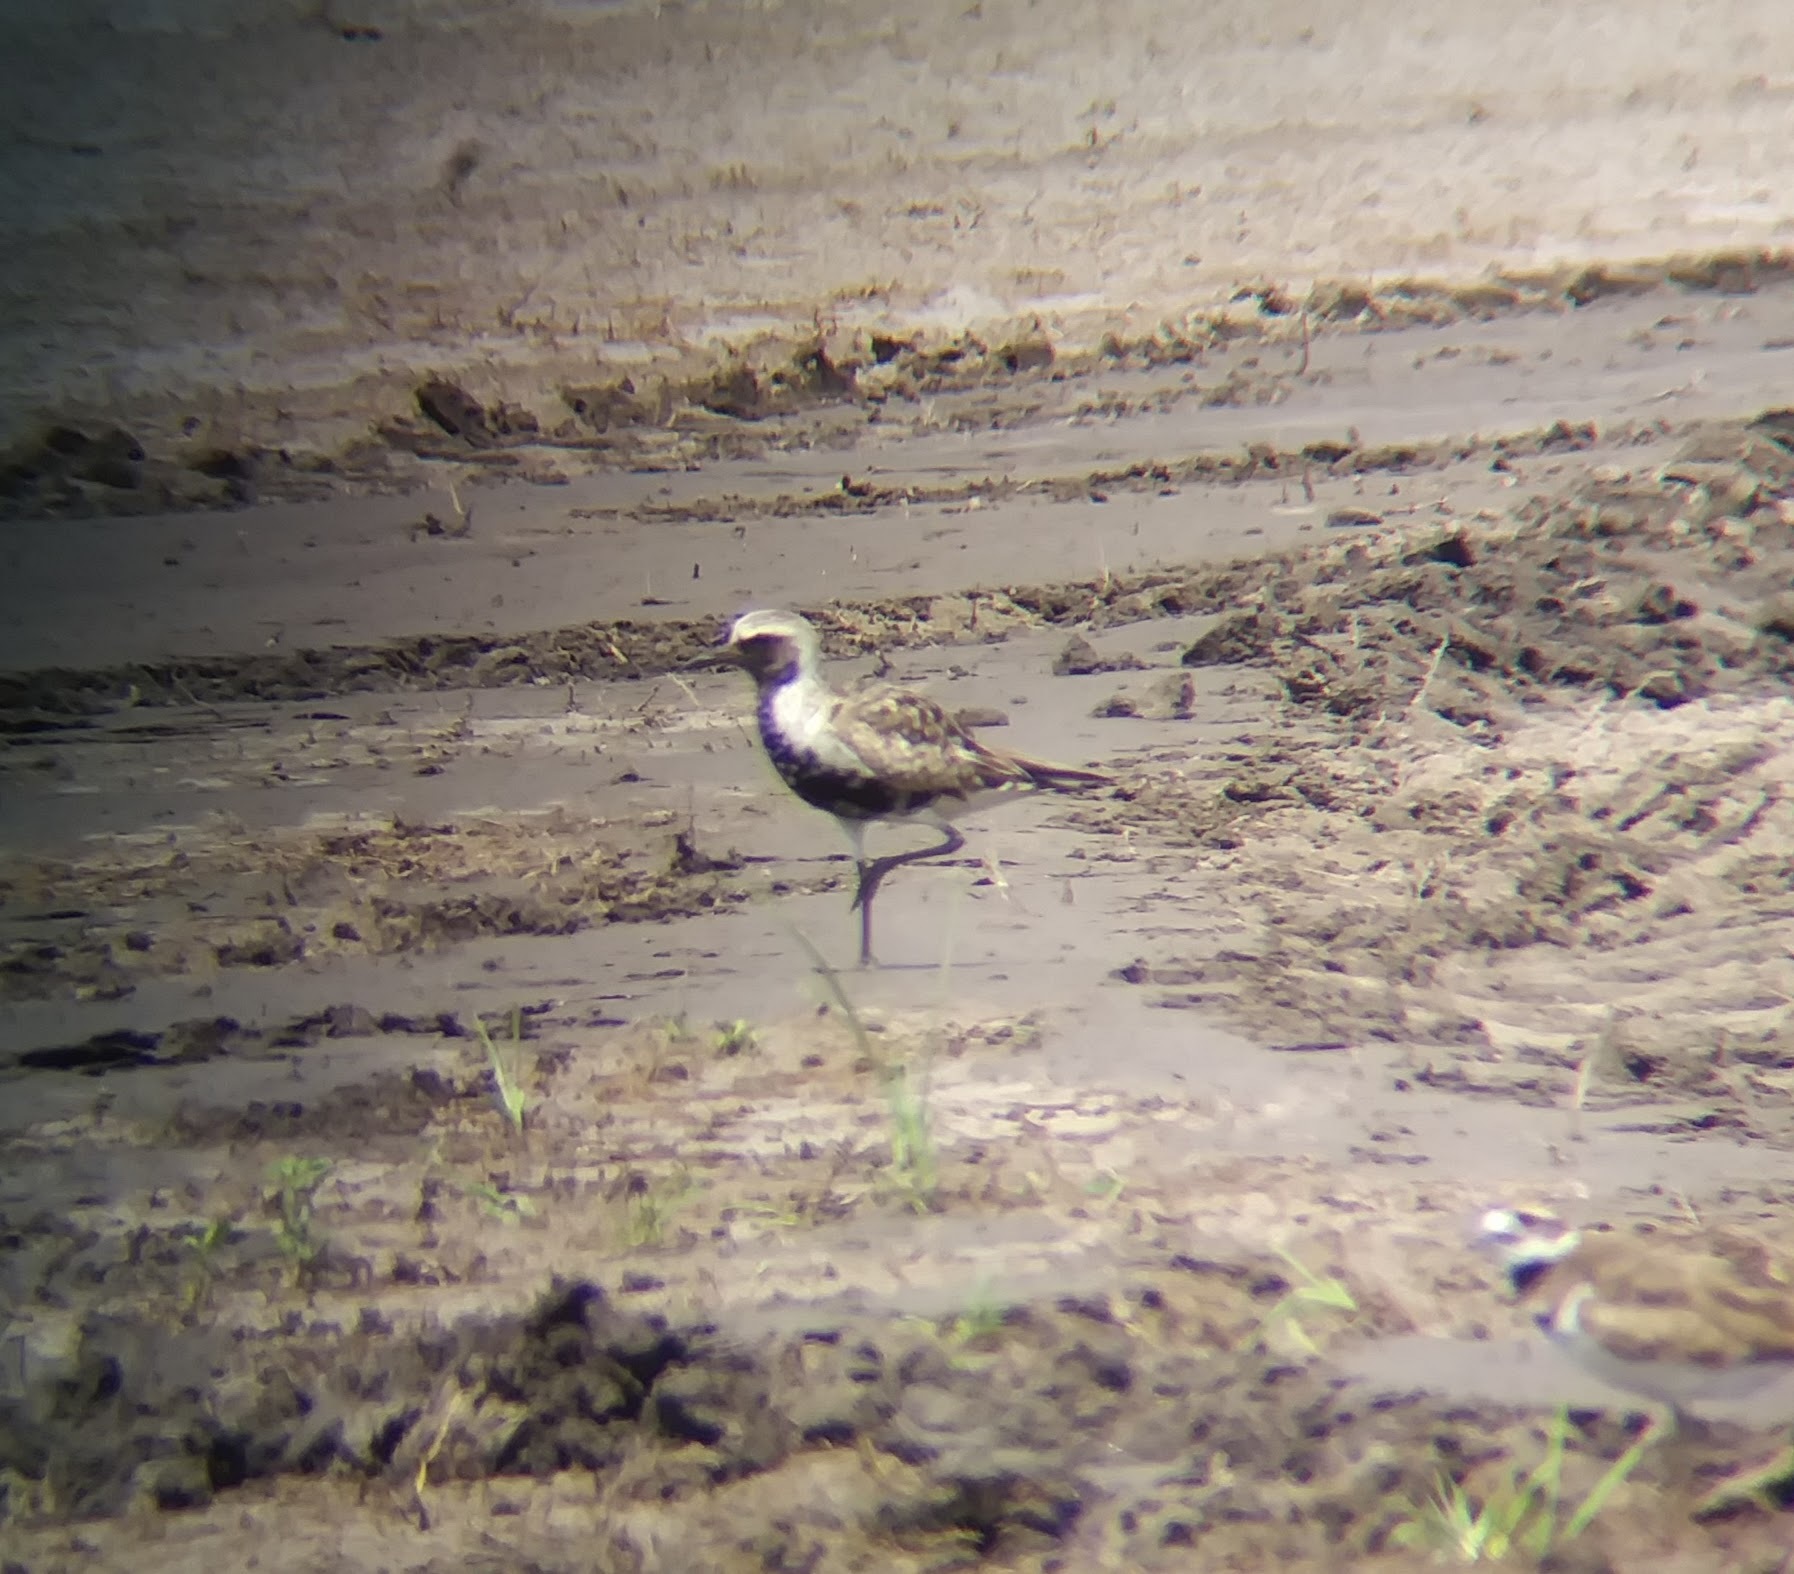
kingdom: Animalia
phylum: Chordata
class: Aves
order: Charadriiformes
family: Charadriidae
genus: Pluvialis
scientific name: Pluvialis squatarola
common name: Grey plover
